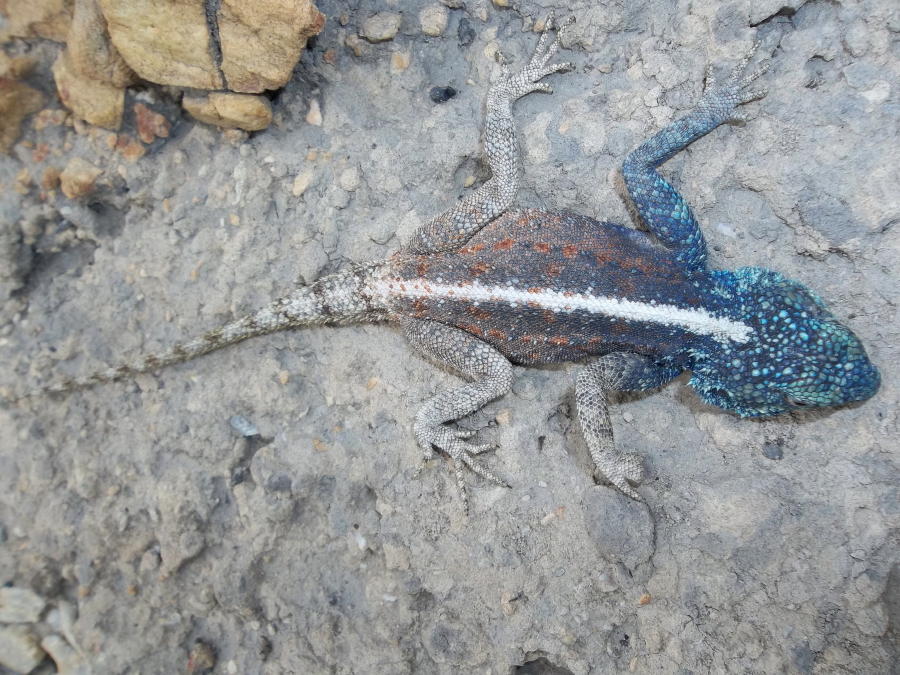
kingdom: Animalia
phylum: Chordata
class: Squamata
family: Agamidae
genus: Agama
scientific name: Agama atra
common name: Southern african rock agama
